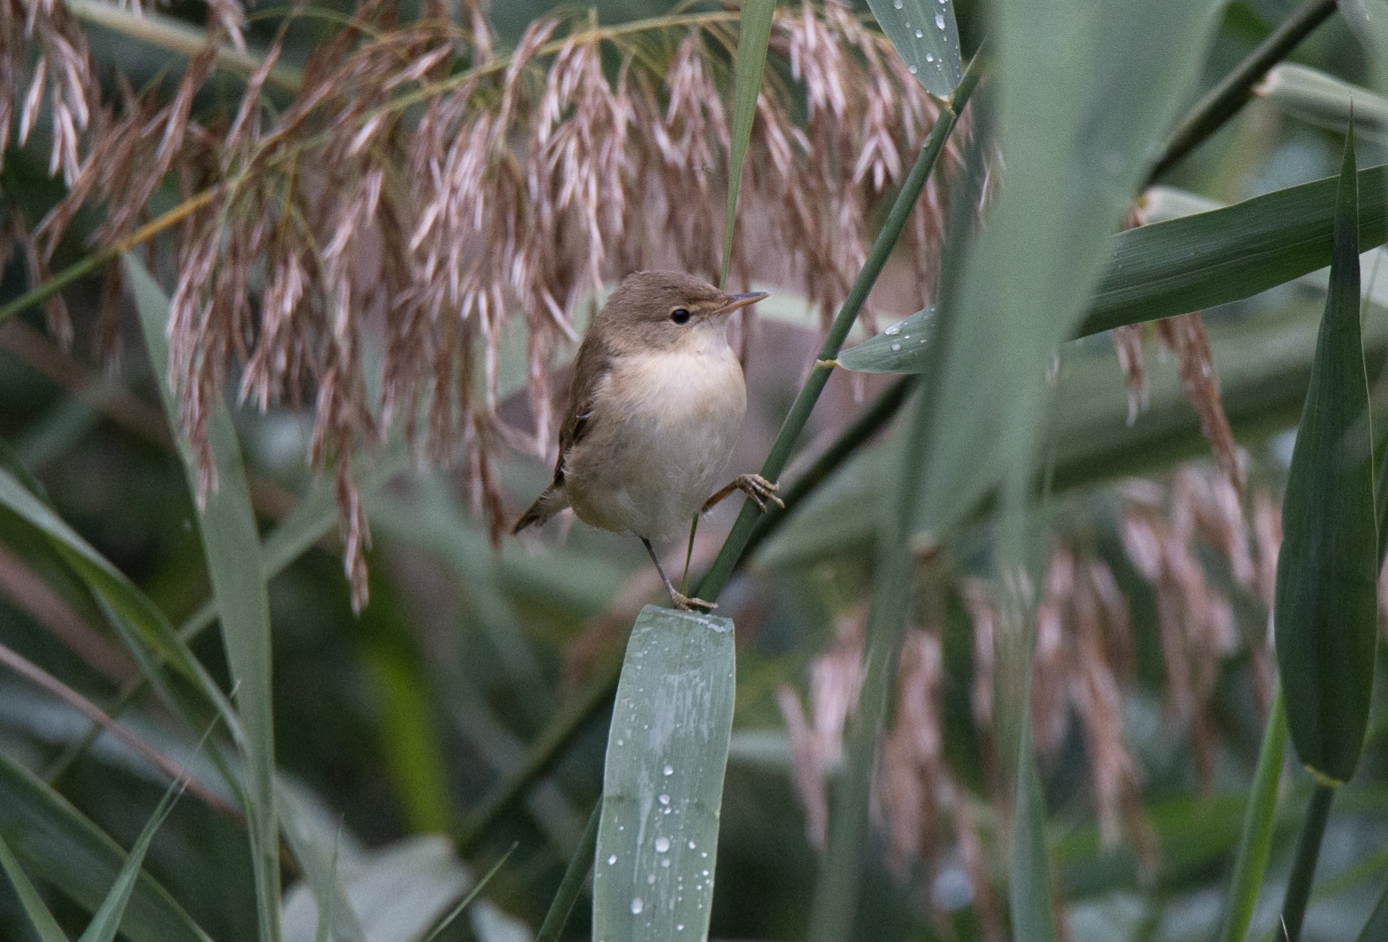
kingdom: Animalia
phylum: Chordata
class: Aves
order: Passeriformes
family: Acrocephalidae
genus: Acrocephalus
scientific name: Acrocephalus scirpaceus
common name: Eurasian reed warbler
